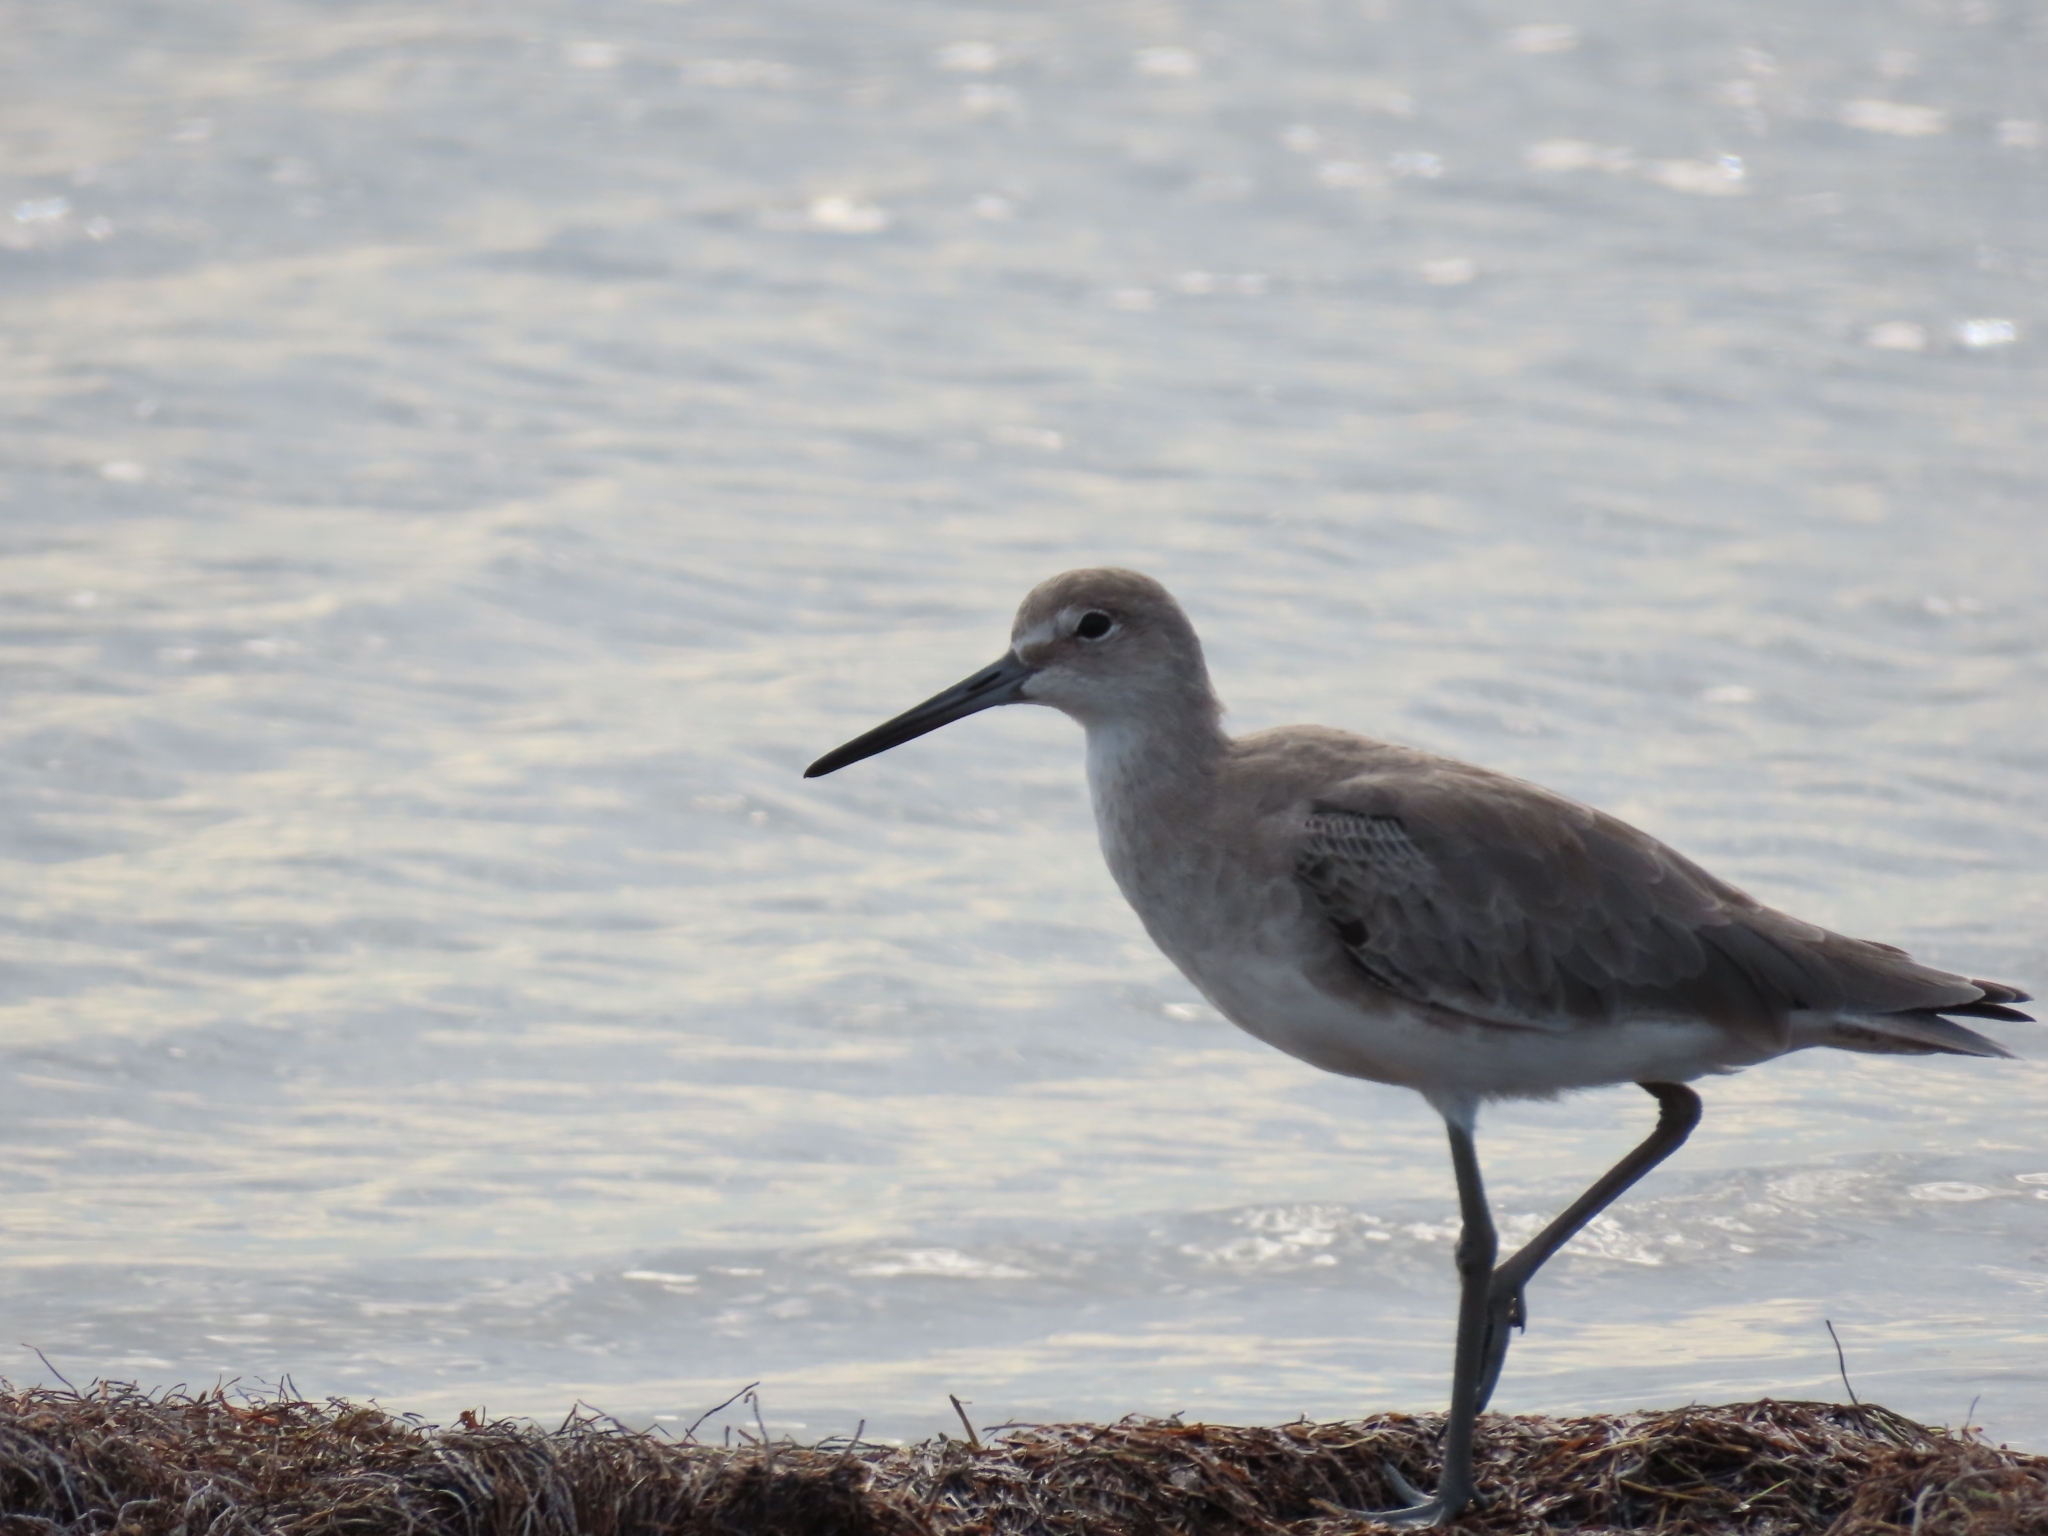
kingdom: Animalia
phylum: Chordata
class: Aves
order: Charadriiformes
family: Scolopacidae
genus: Tringa
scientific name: Tringa semipalmata
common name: Willet
